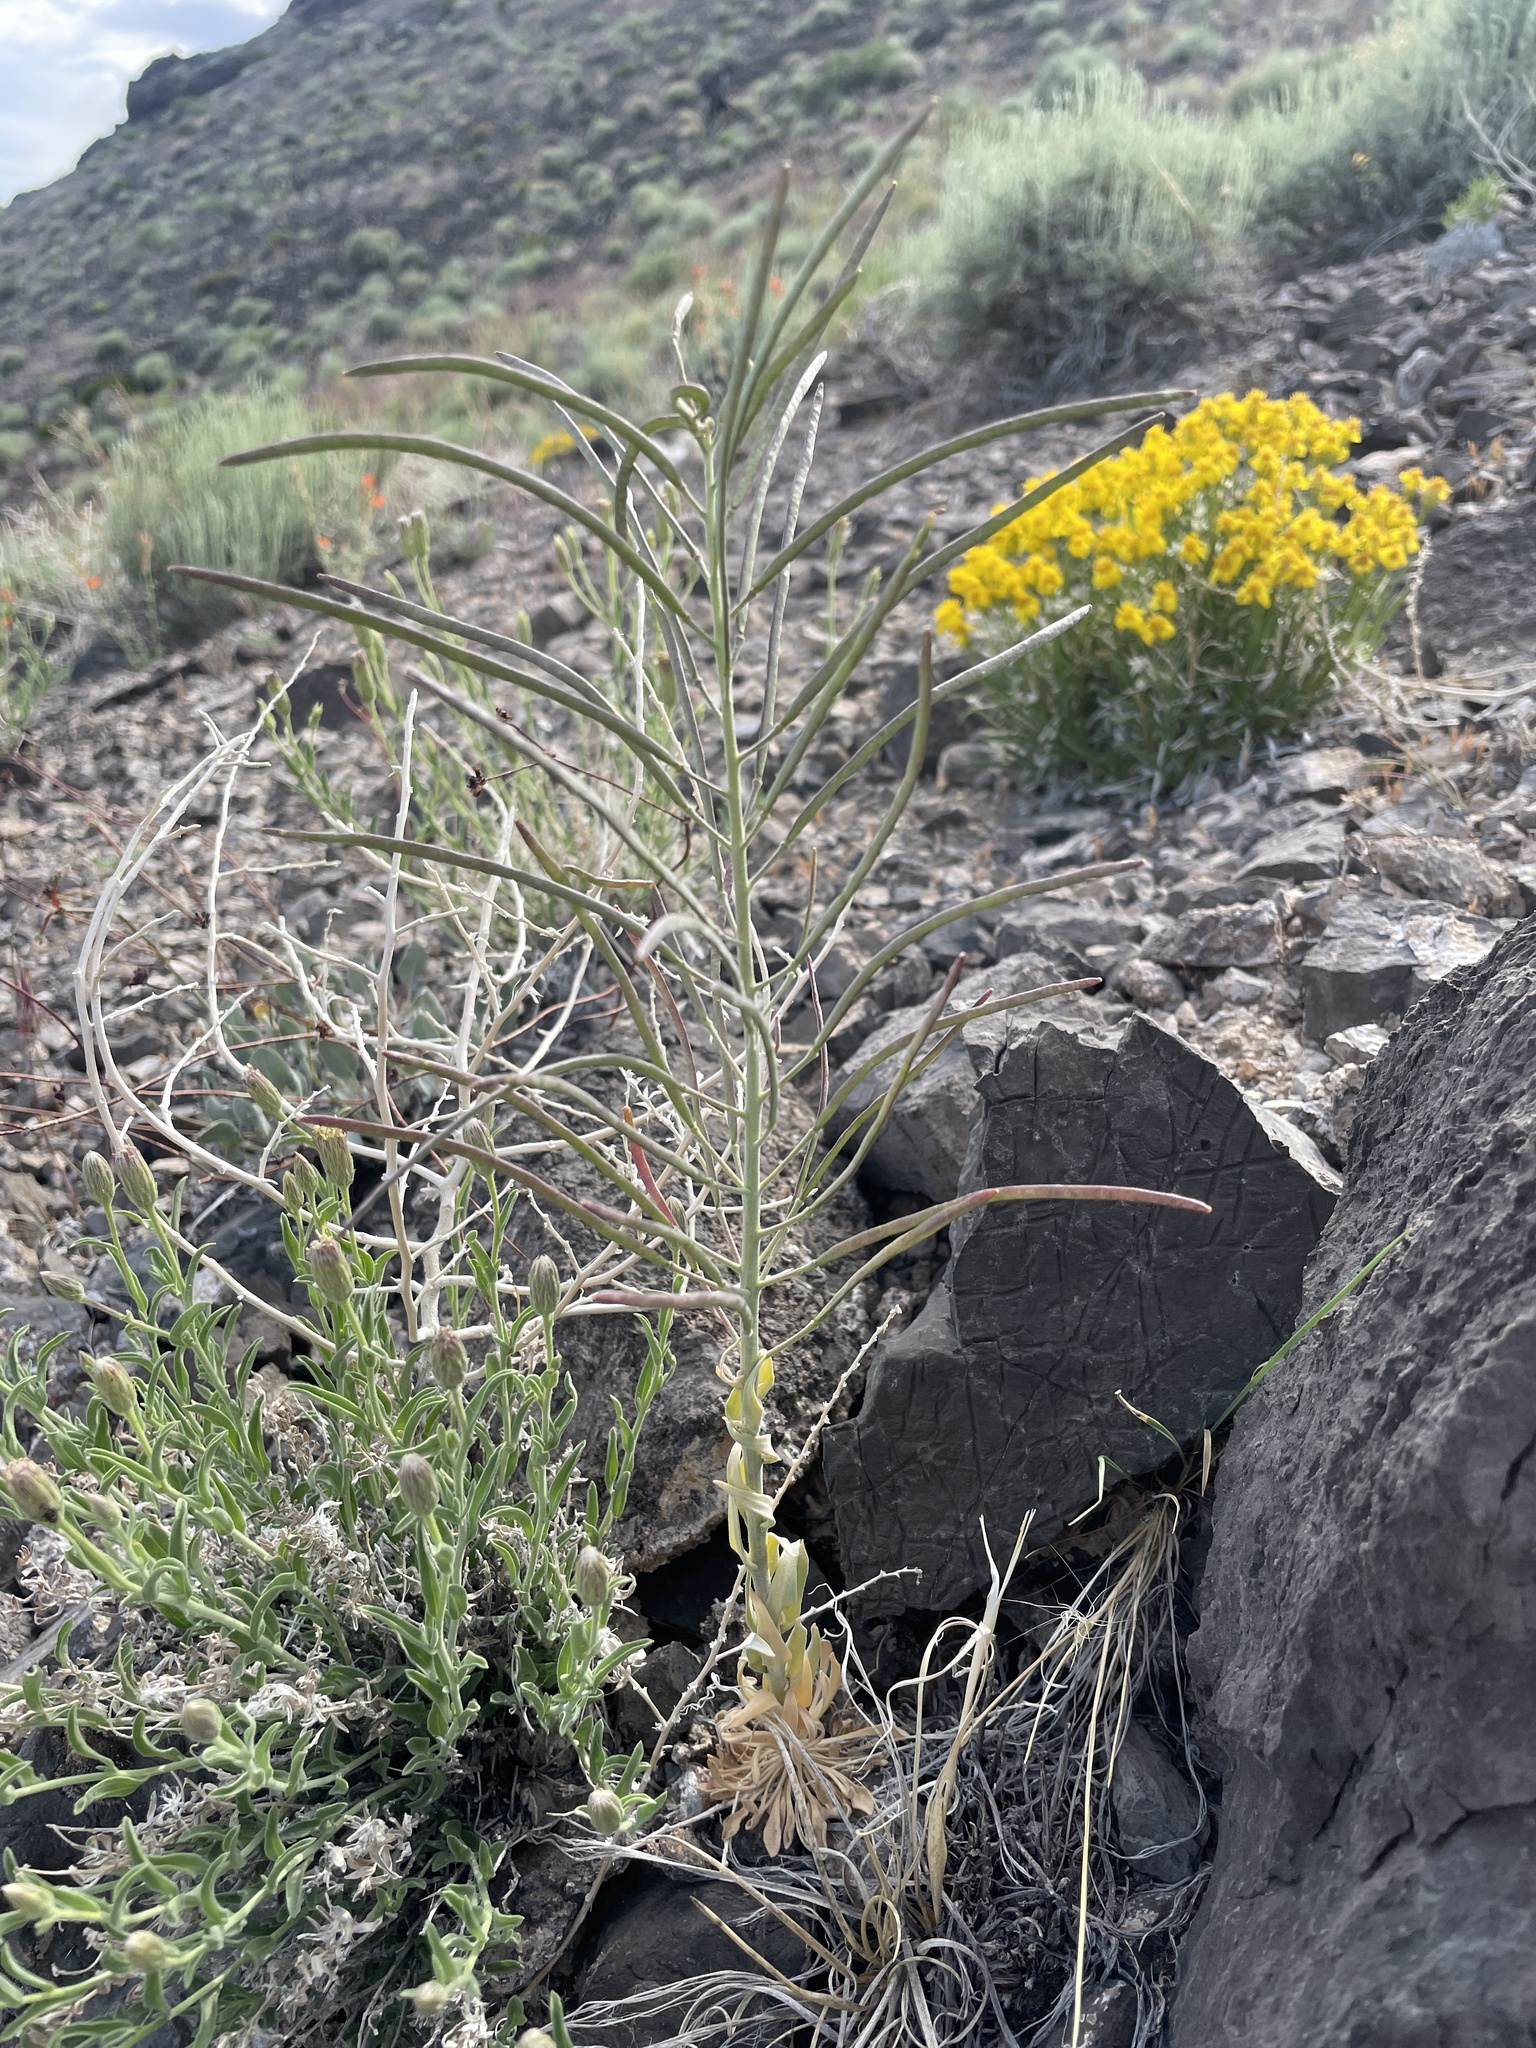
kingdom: Plantae
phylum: Tracheophyta
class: Magnoliopsida
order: Brassicales
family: Brassicaceae
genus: Boechera
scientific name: Boechera shockleyi
